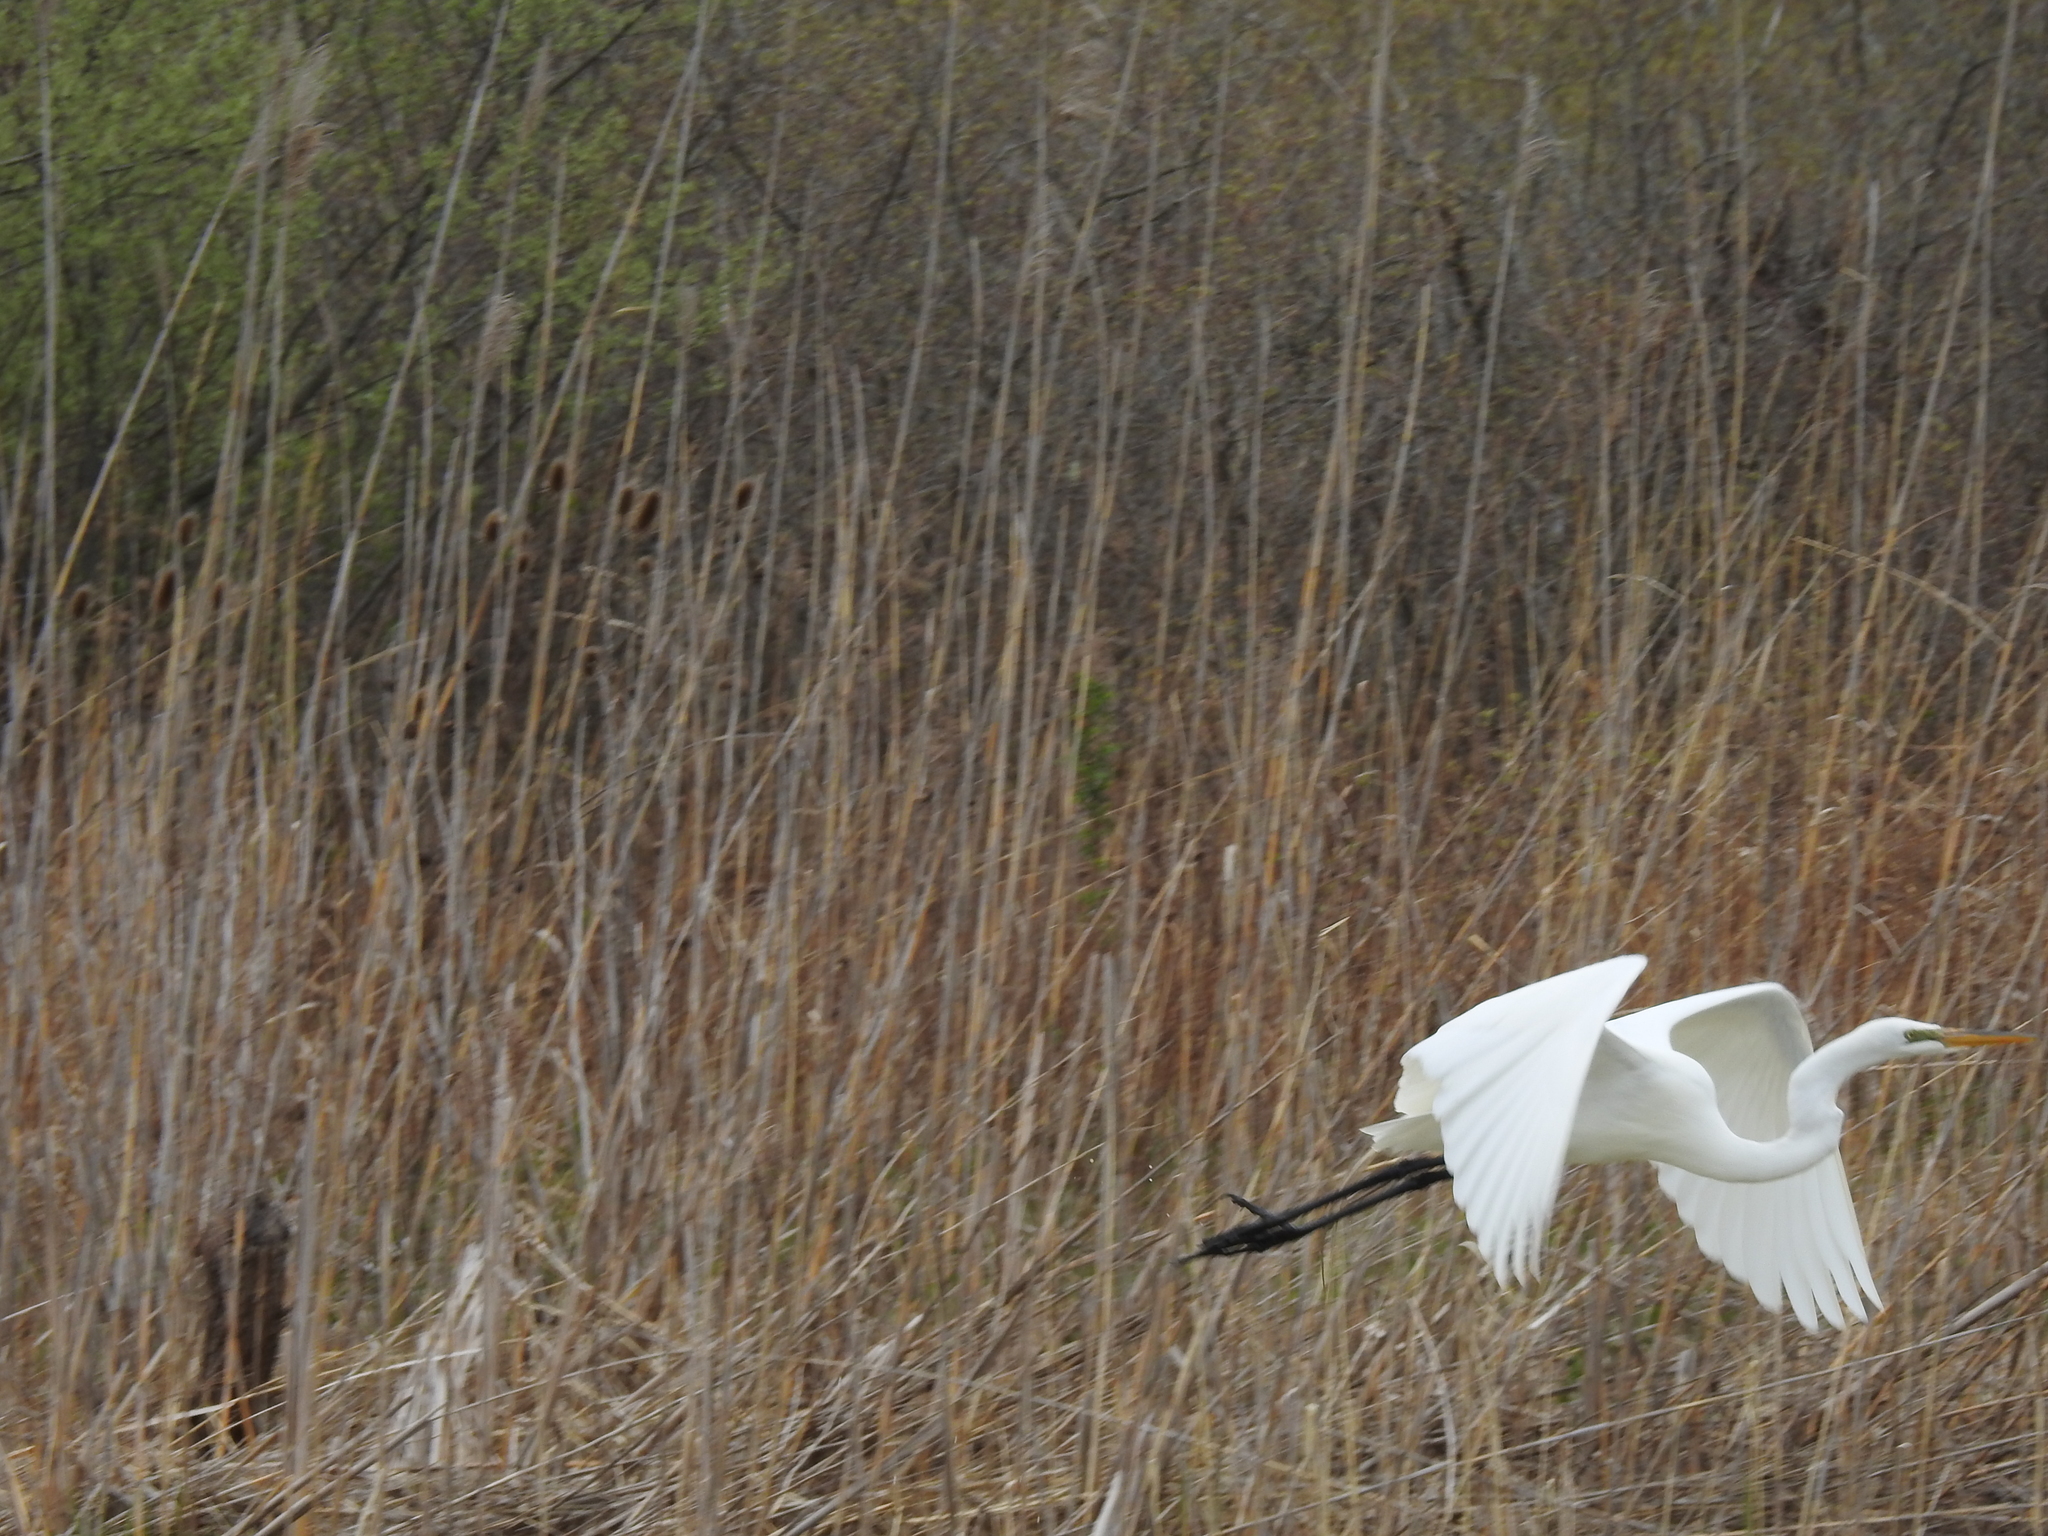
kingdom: Animalia
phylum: Chordata
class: Aves
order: Pelecaniformes
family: Ardeidae
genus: Ardea
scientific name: Ardea alba
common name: Great egret
